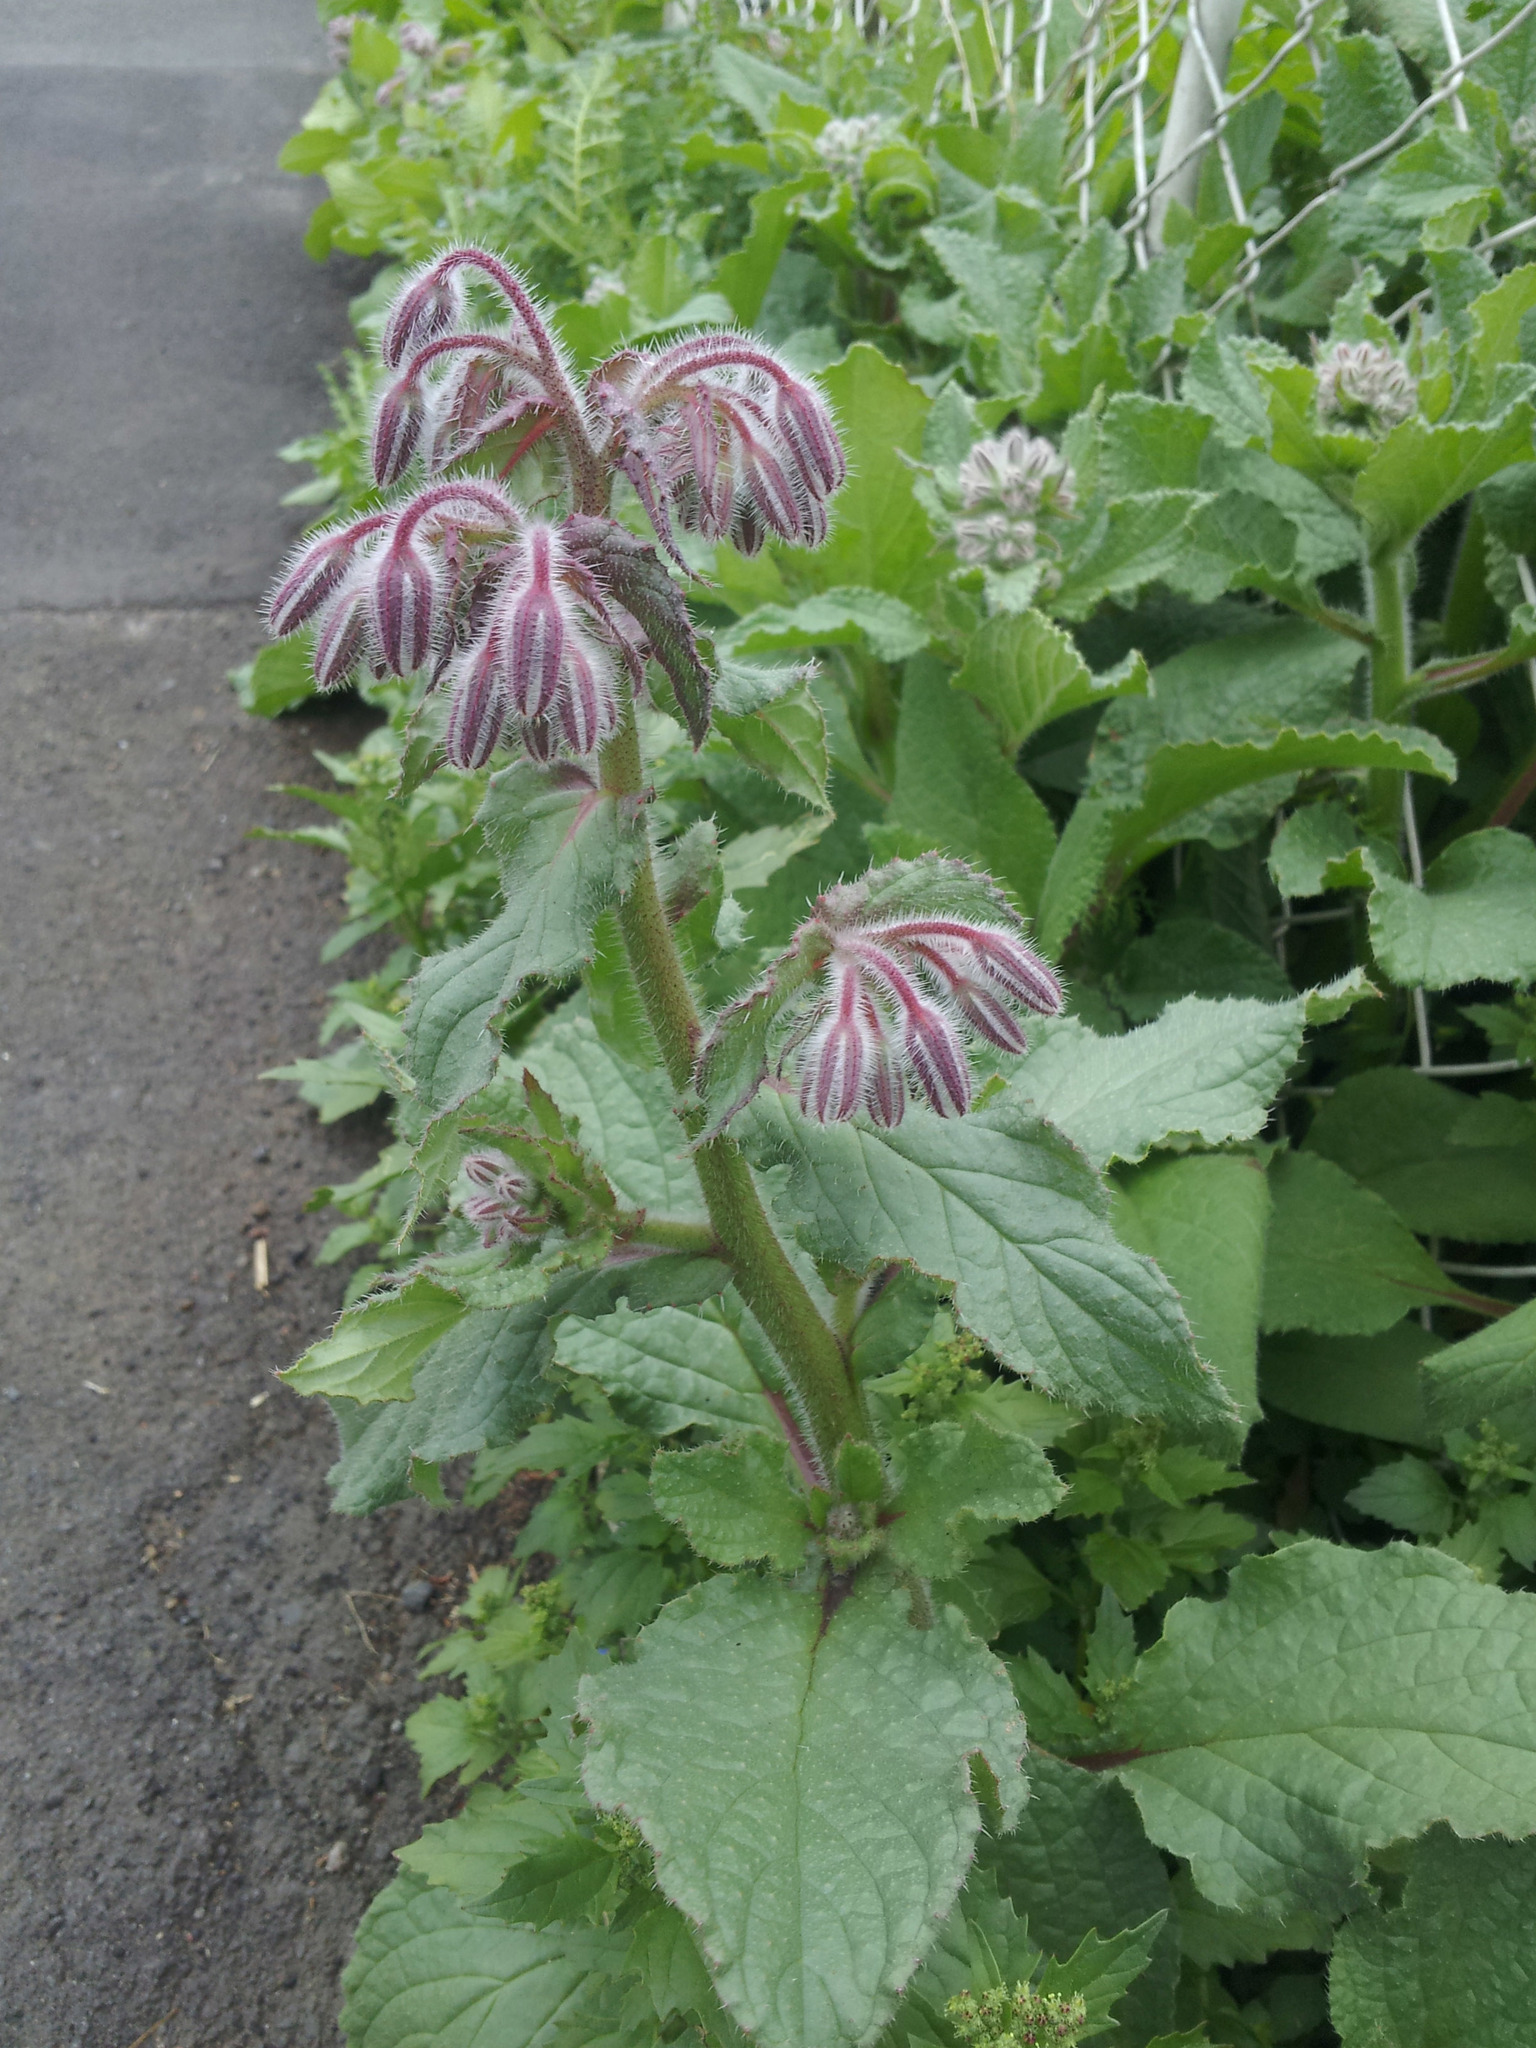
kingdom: Plantae
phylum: Tracheophyta
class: Magnoliopsida
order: Boraginales
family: Boraginaceae
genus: Borago
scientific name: Borago officinalis
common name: Borage
